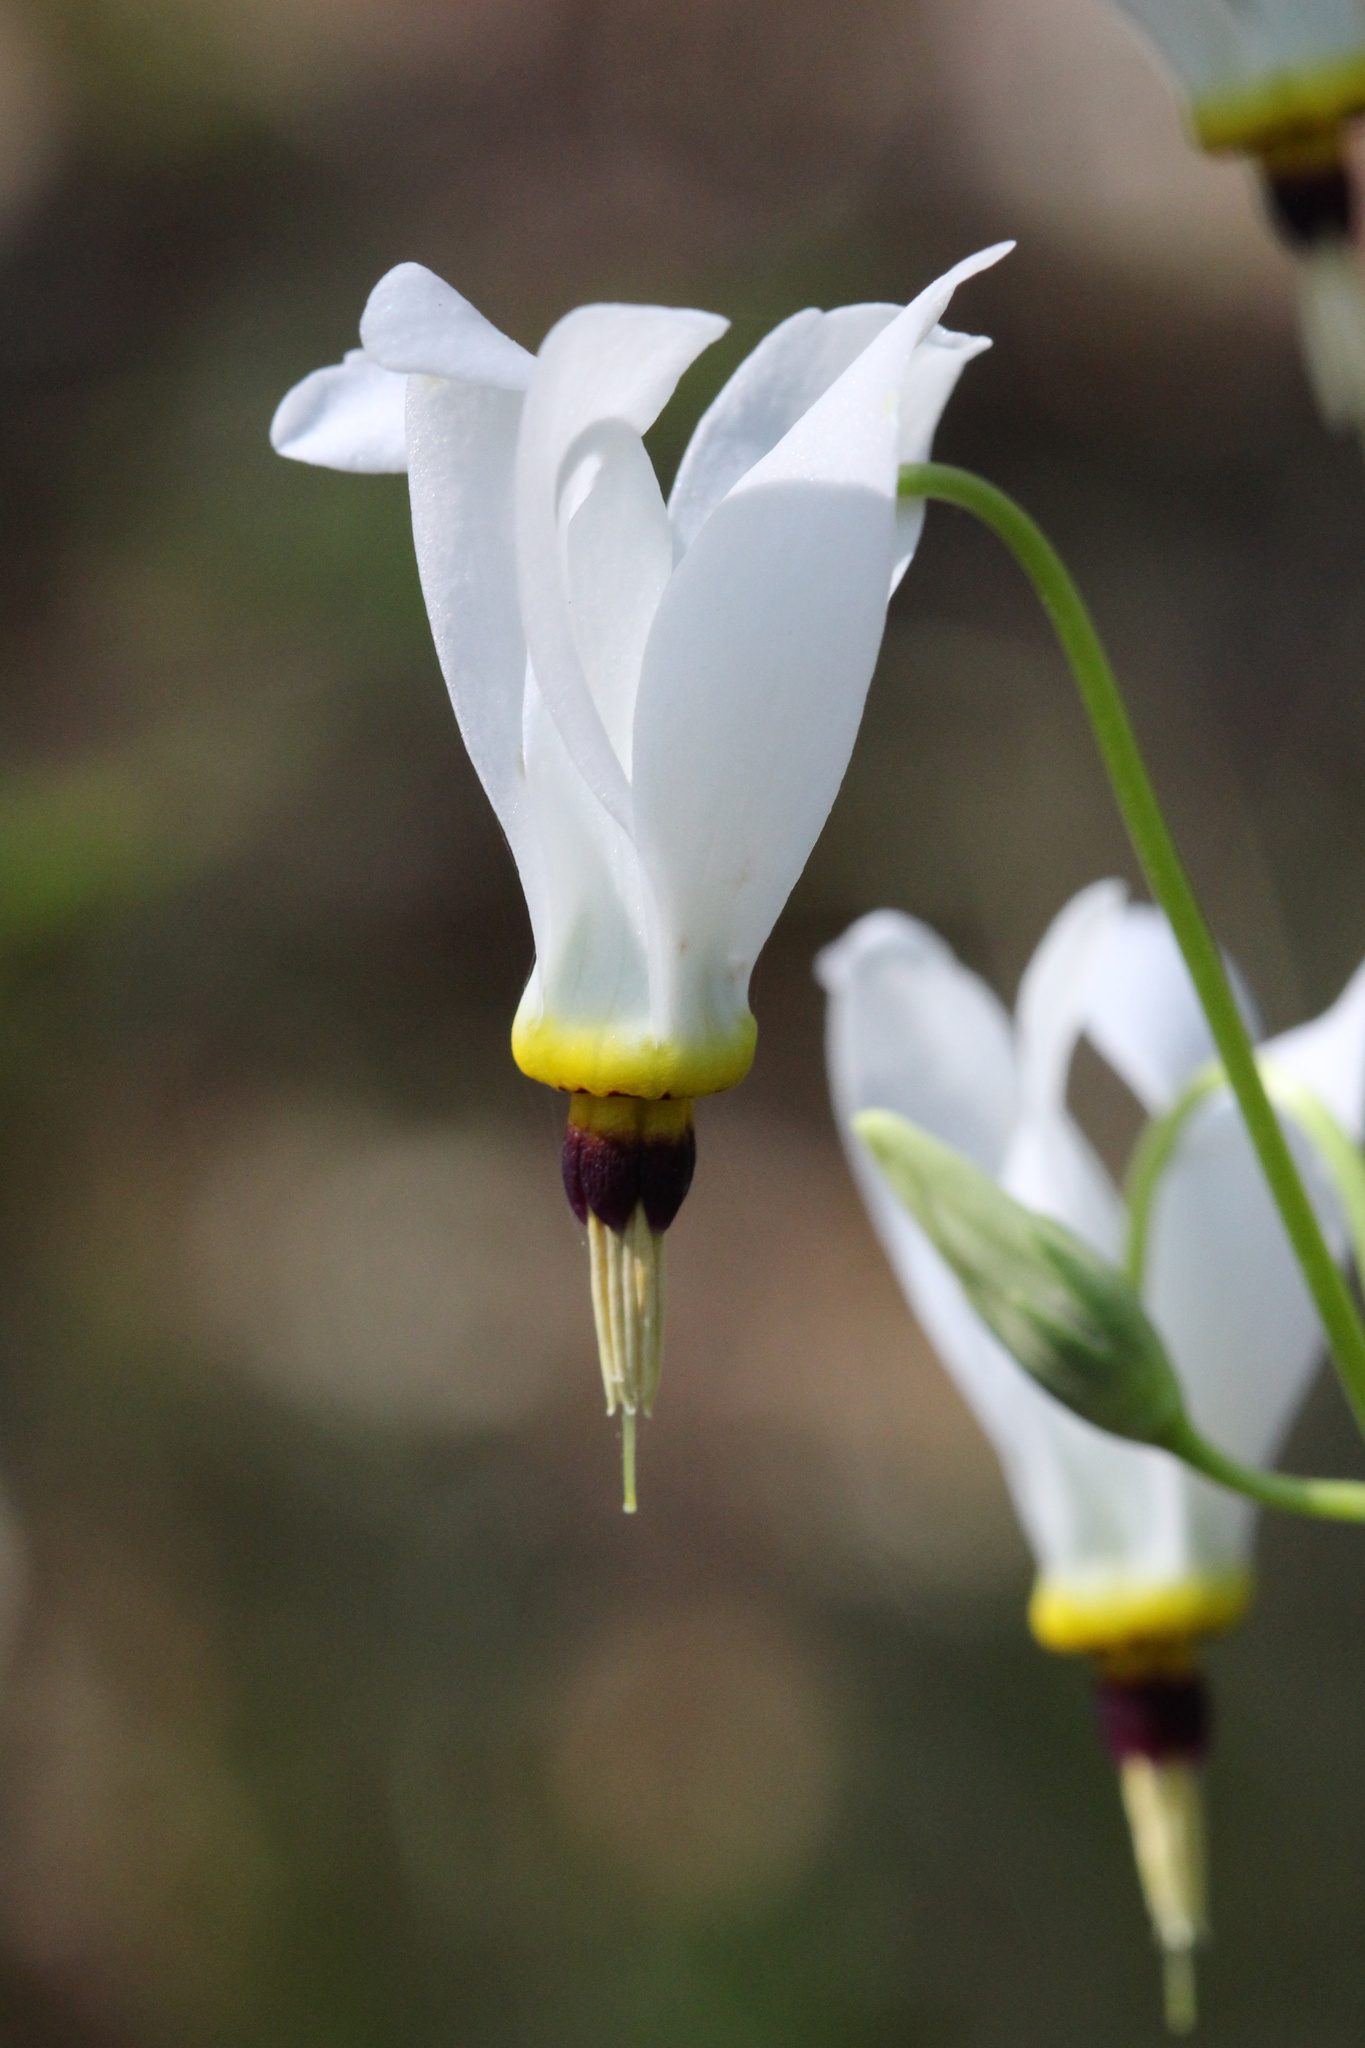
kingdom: Plantae
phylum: Tracheophyta
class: Magnoliopsida
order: Ericales
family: Primulaceae
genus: Dodecatheon
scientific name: Dodecatheon meadia
